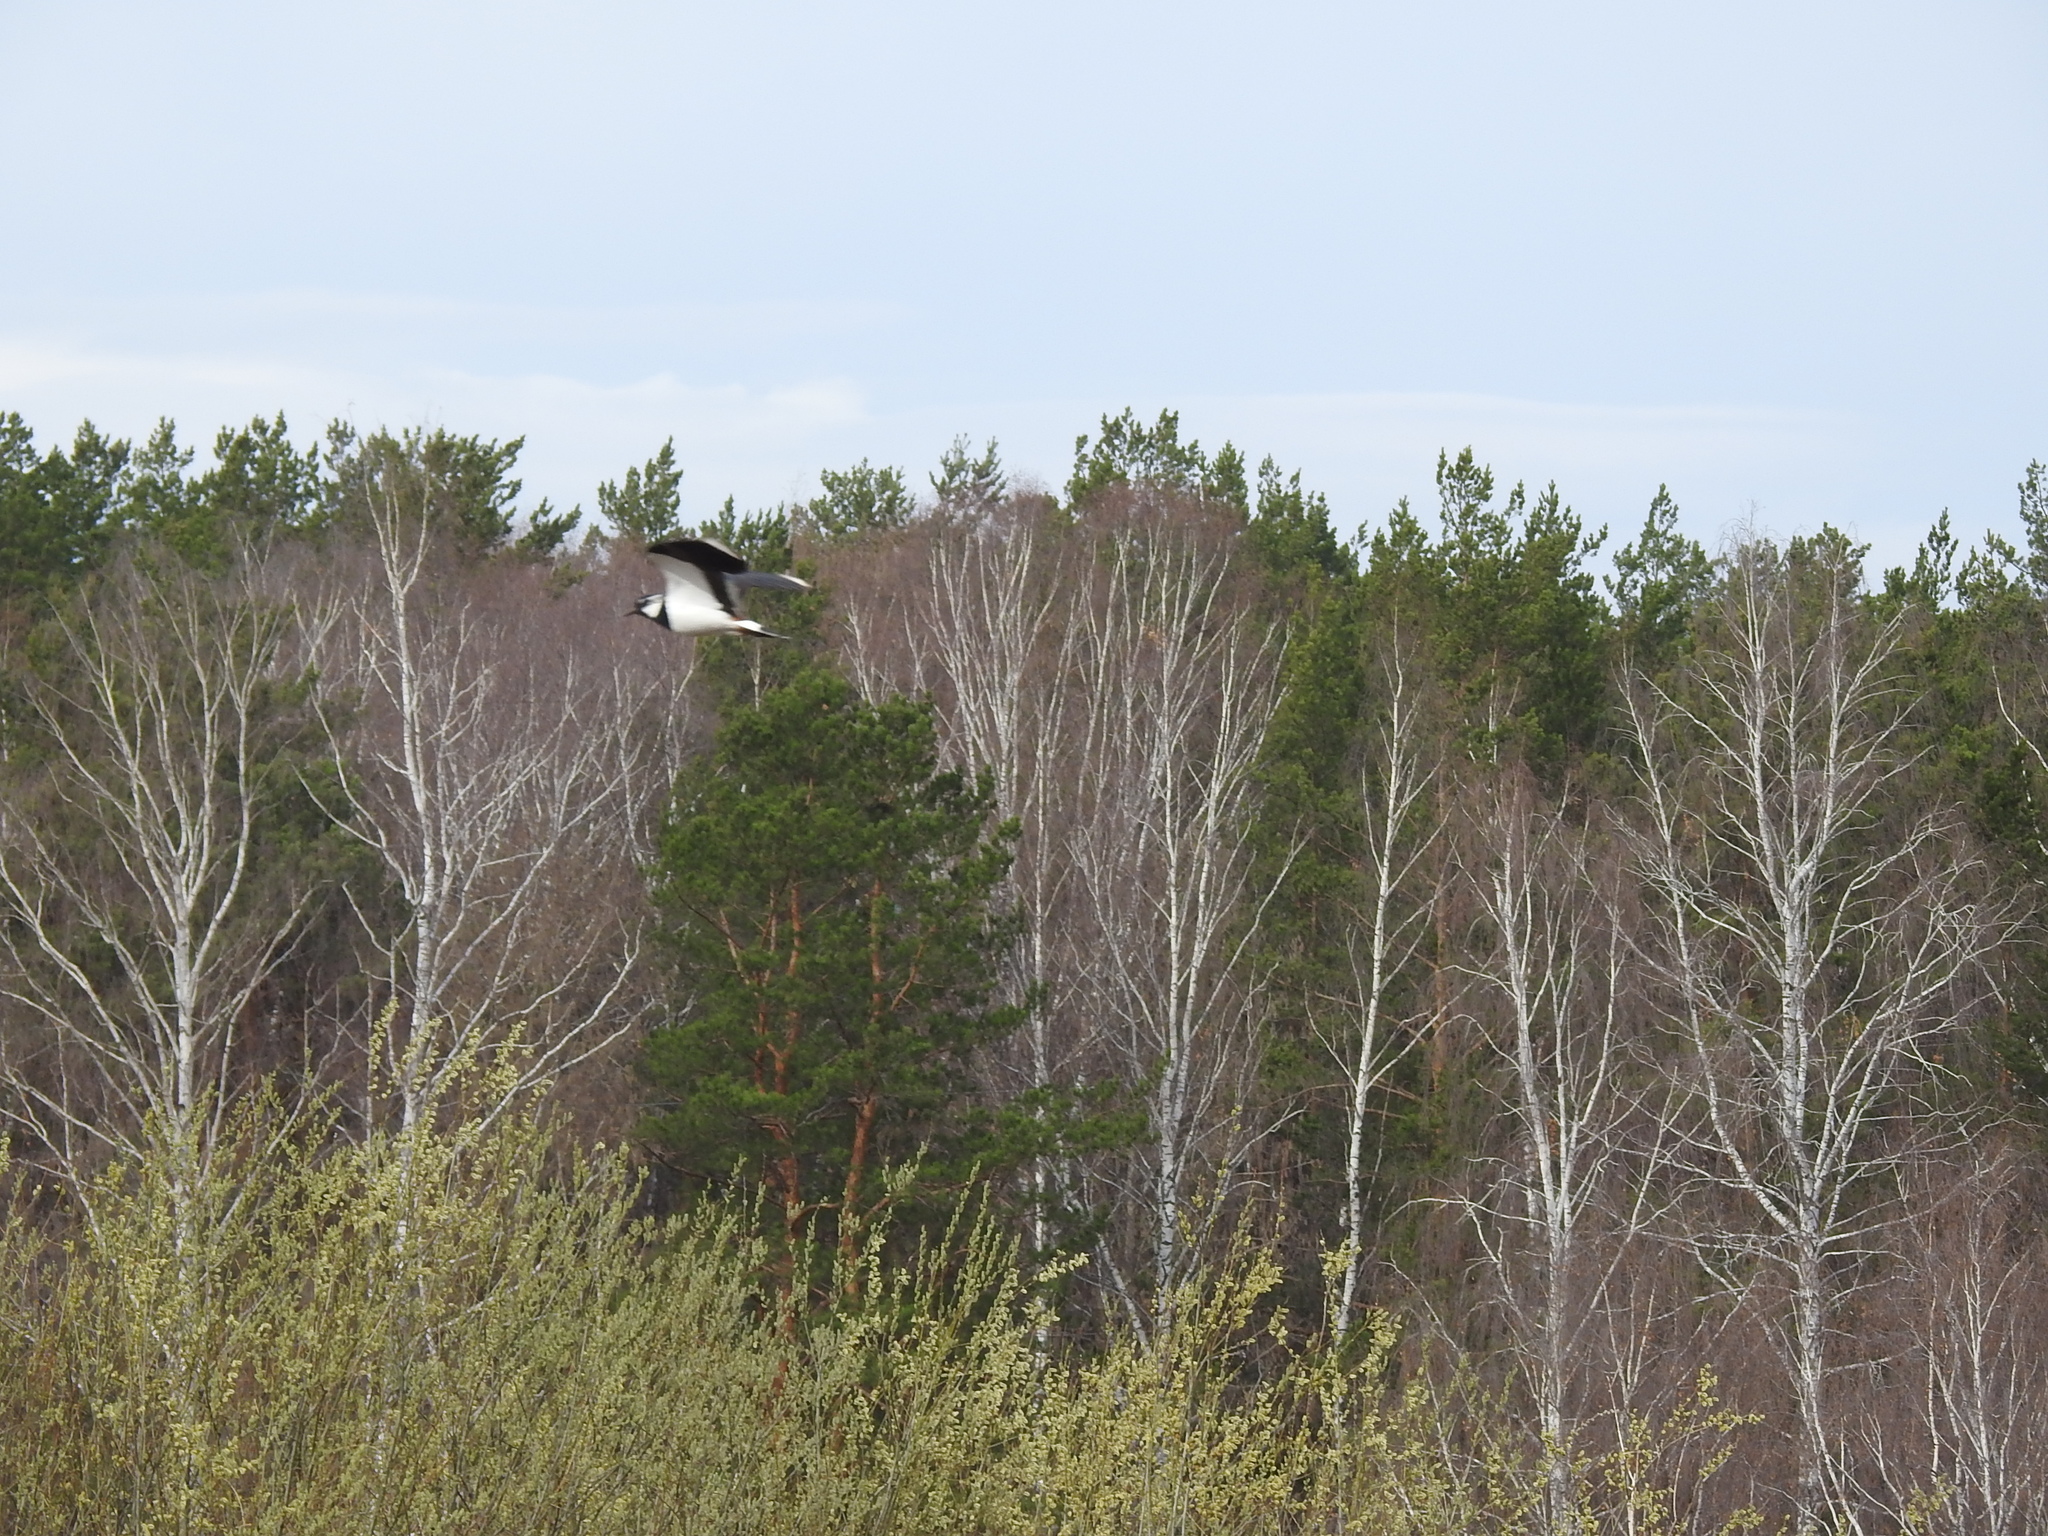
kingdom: Animalia
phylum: Chordata
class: Aves
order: Charadriiformes
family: Charadriidae
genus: Vanellus
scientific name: Vanellus vanellus
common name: Northern lapwing
